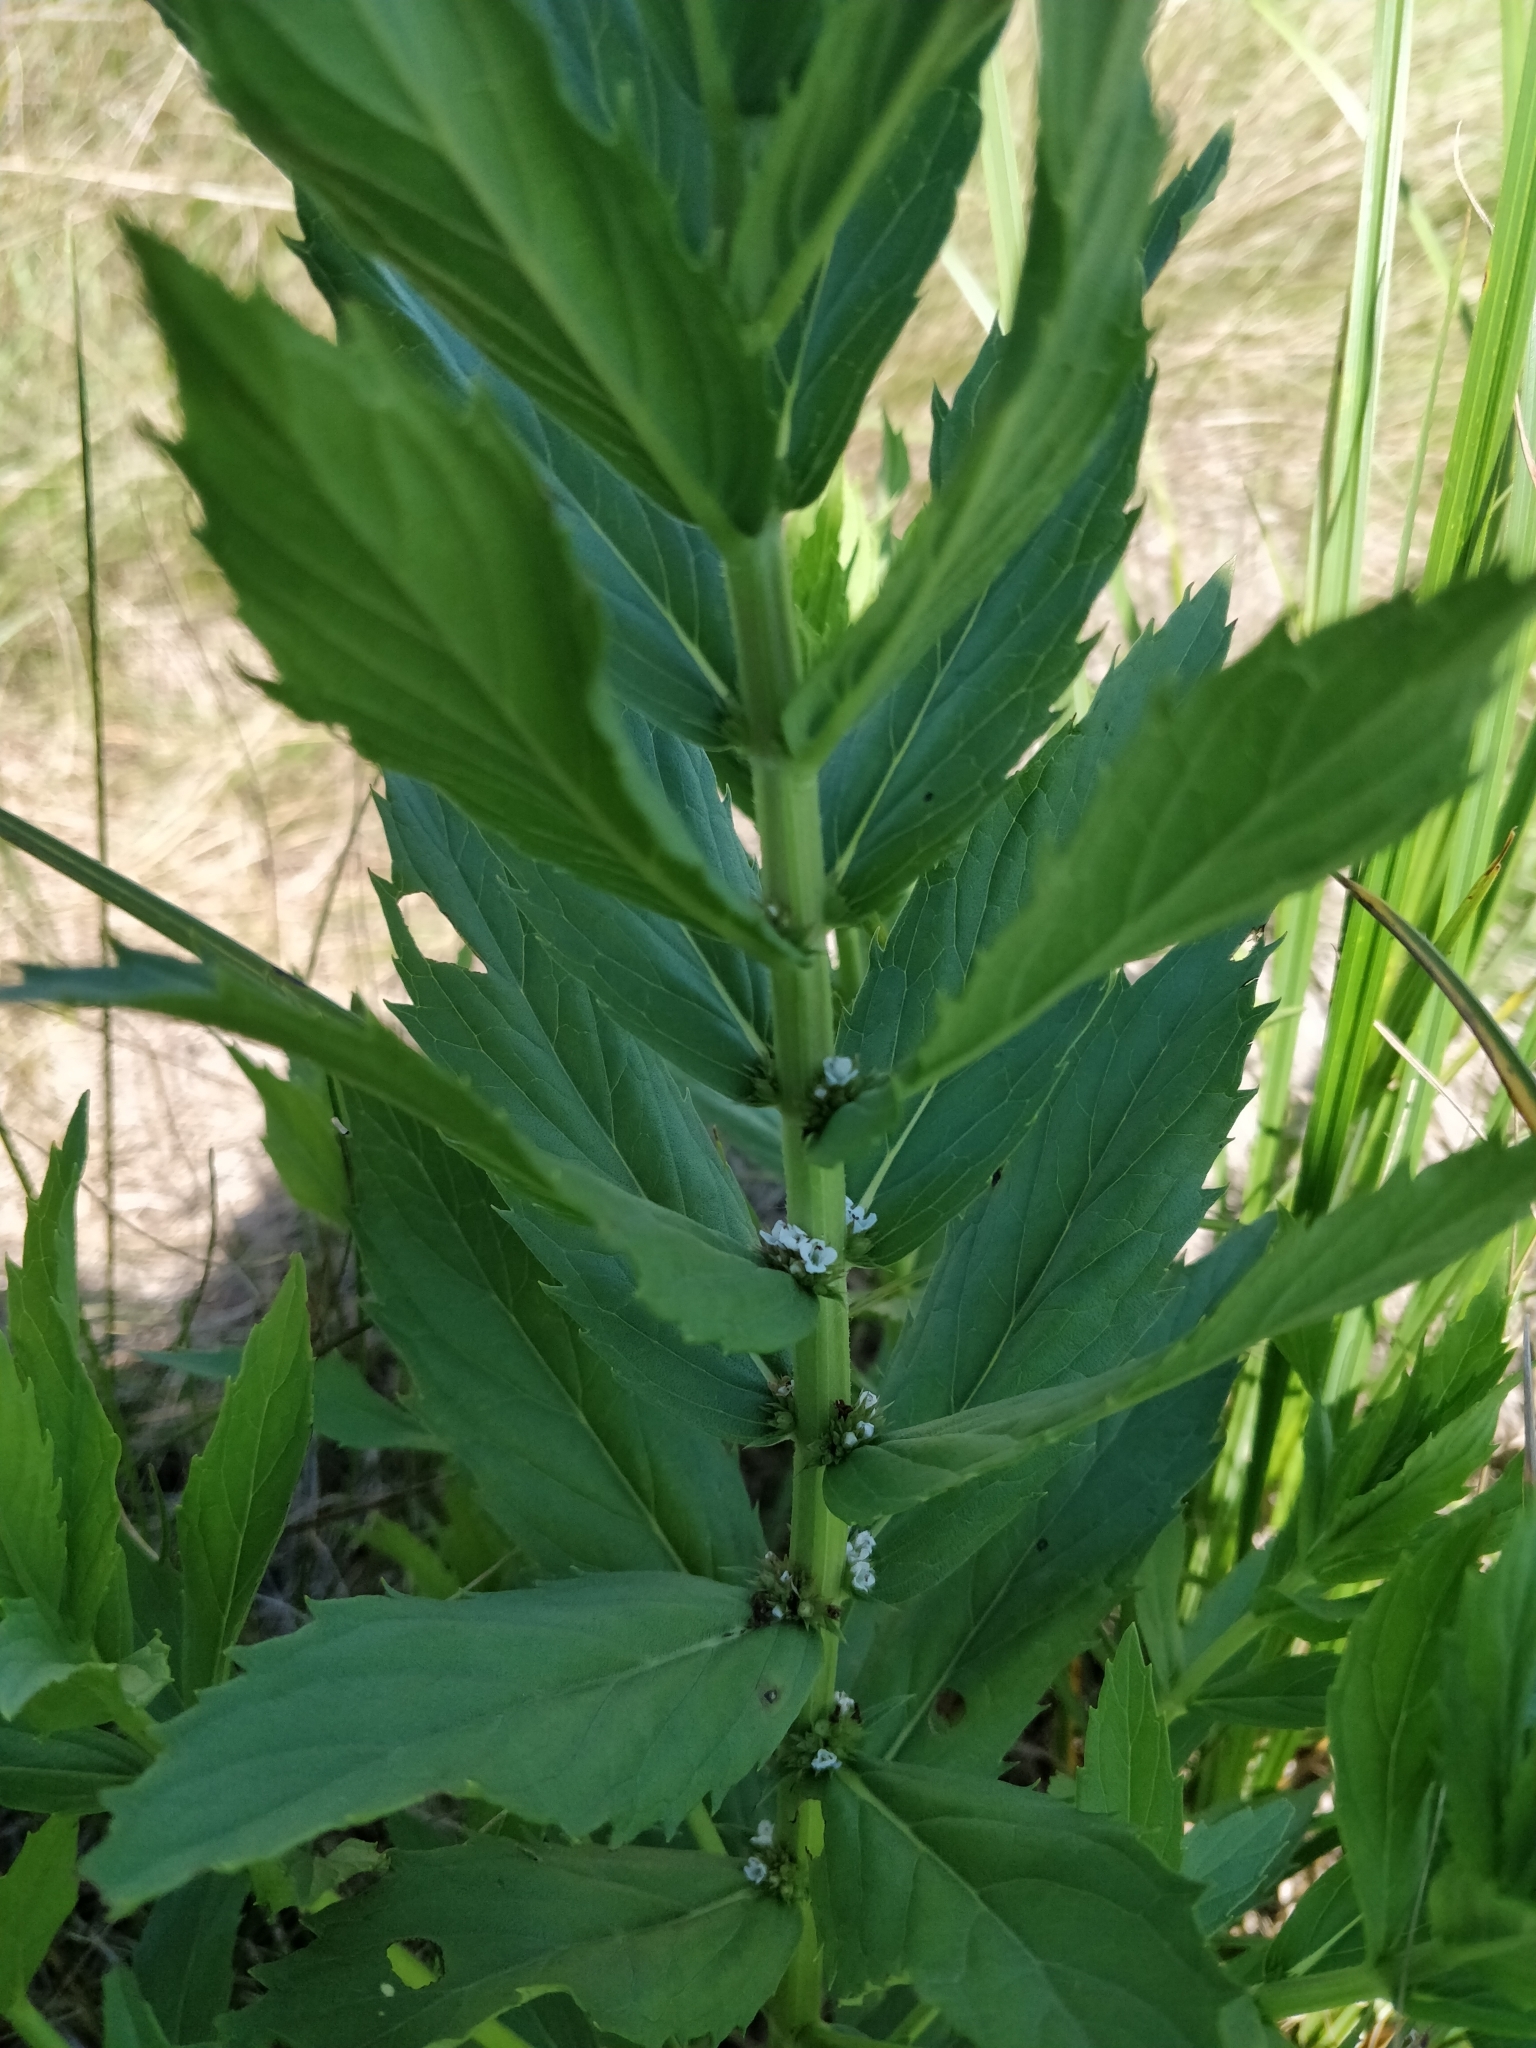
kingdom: Plantae
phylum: Tracheophyta
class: Magnoliopsida
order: Lamiales
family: Lamiaceae
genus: Lycopus
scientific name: Lycopus asper
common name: Rough water-horehound
